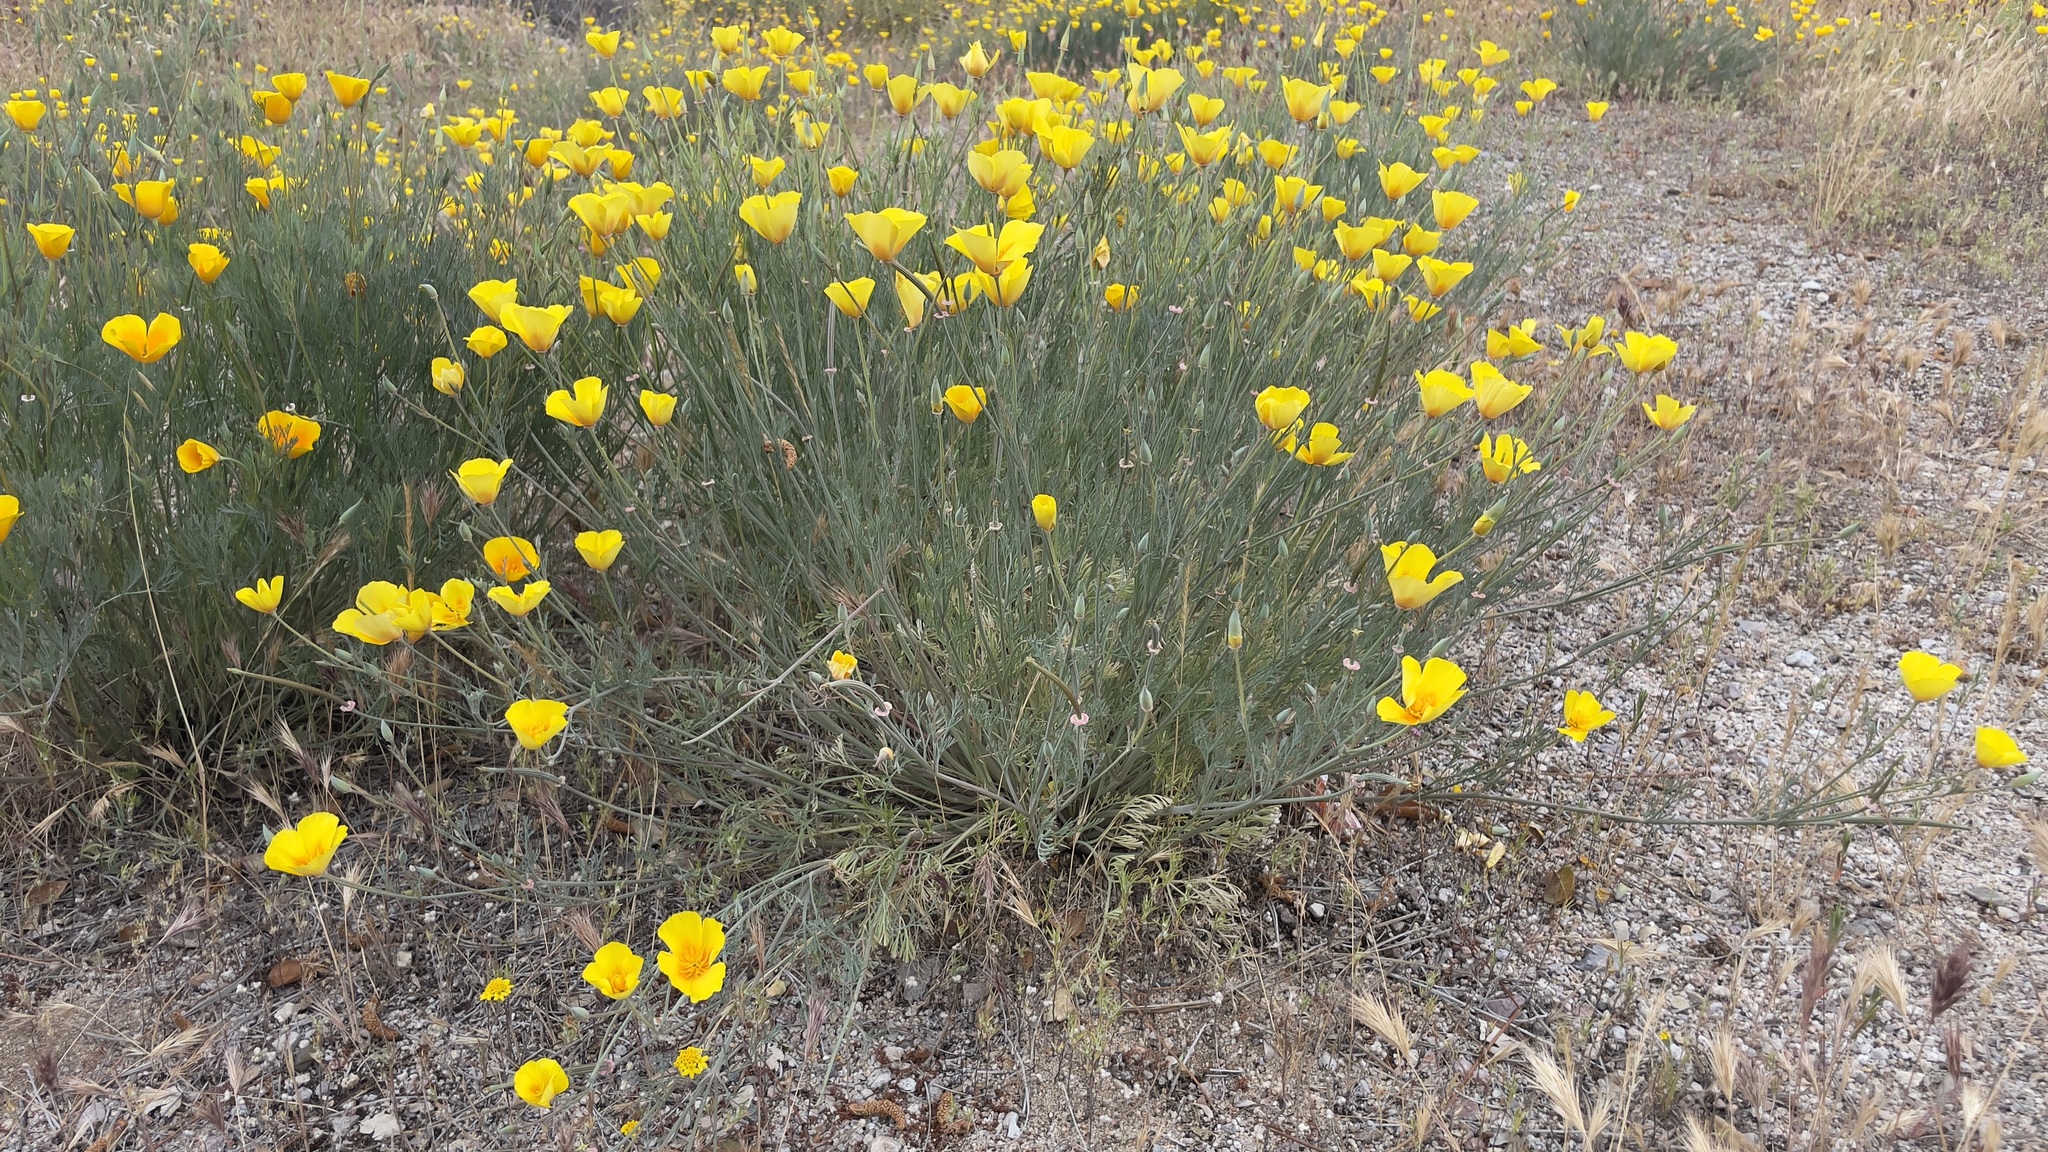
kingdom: Plantae
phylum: Tracheophyta
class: Magnoliopsida
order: Ranunculales
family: Papaveraceae
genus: Eschscholzia
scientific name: Eschscholzia californica
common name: California poppy
